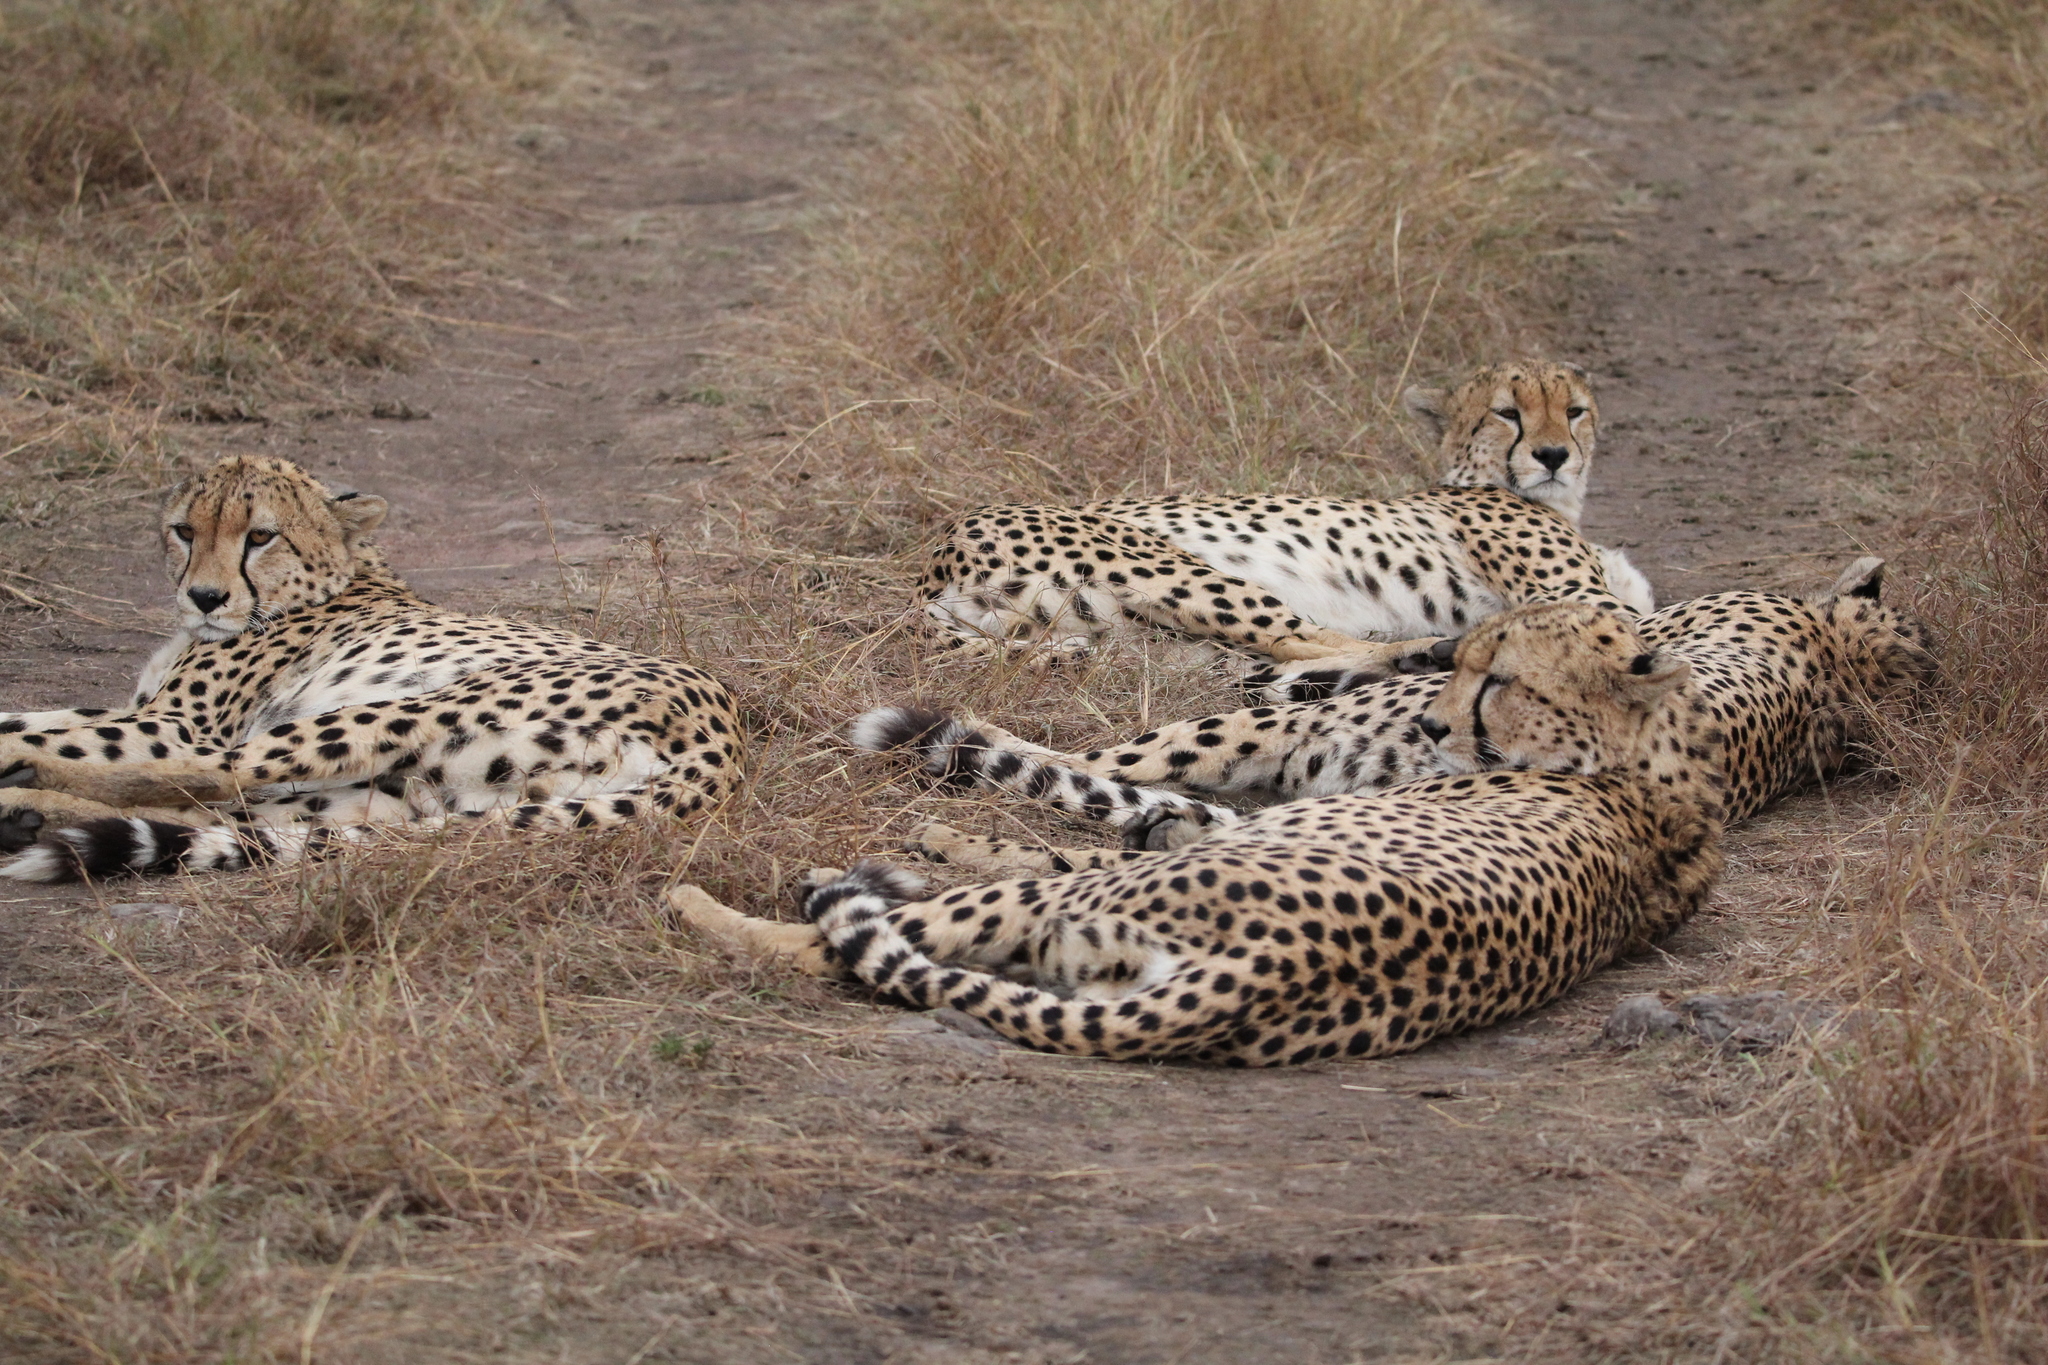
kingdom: Animalia
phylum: Chordata
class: Mammalia
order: Carnivora
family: Felidae
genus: Acinonyx
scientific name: Acinonyx jubatus
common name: Cheetah
